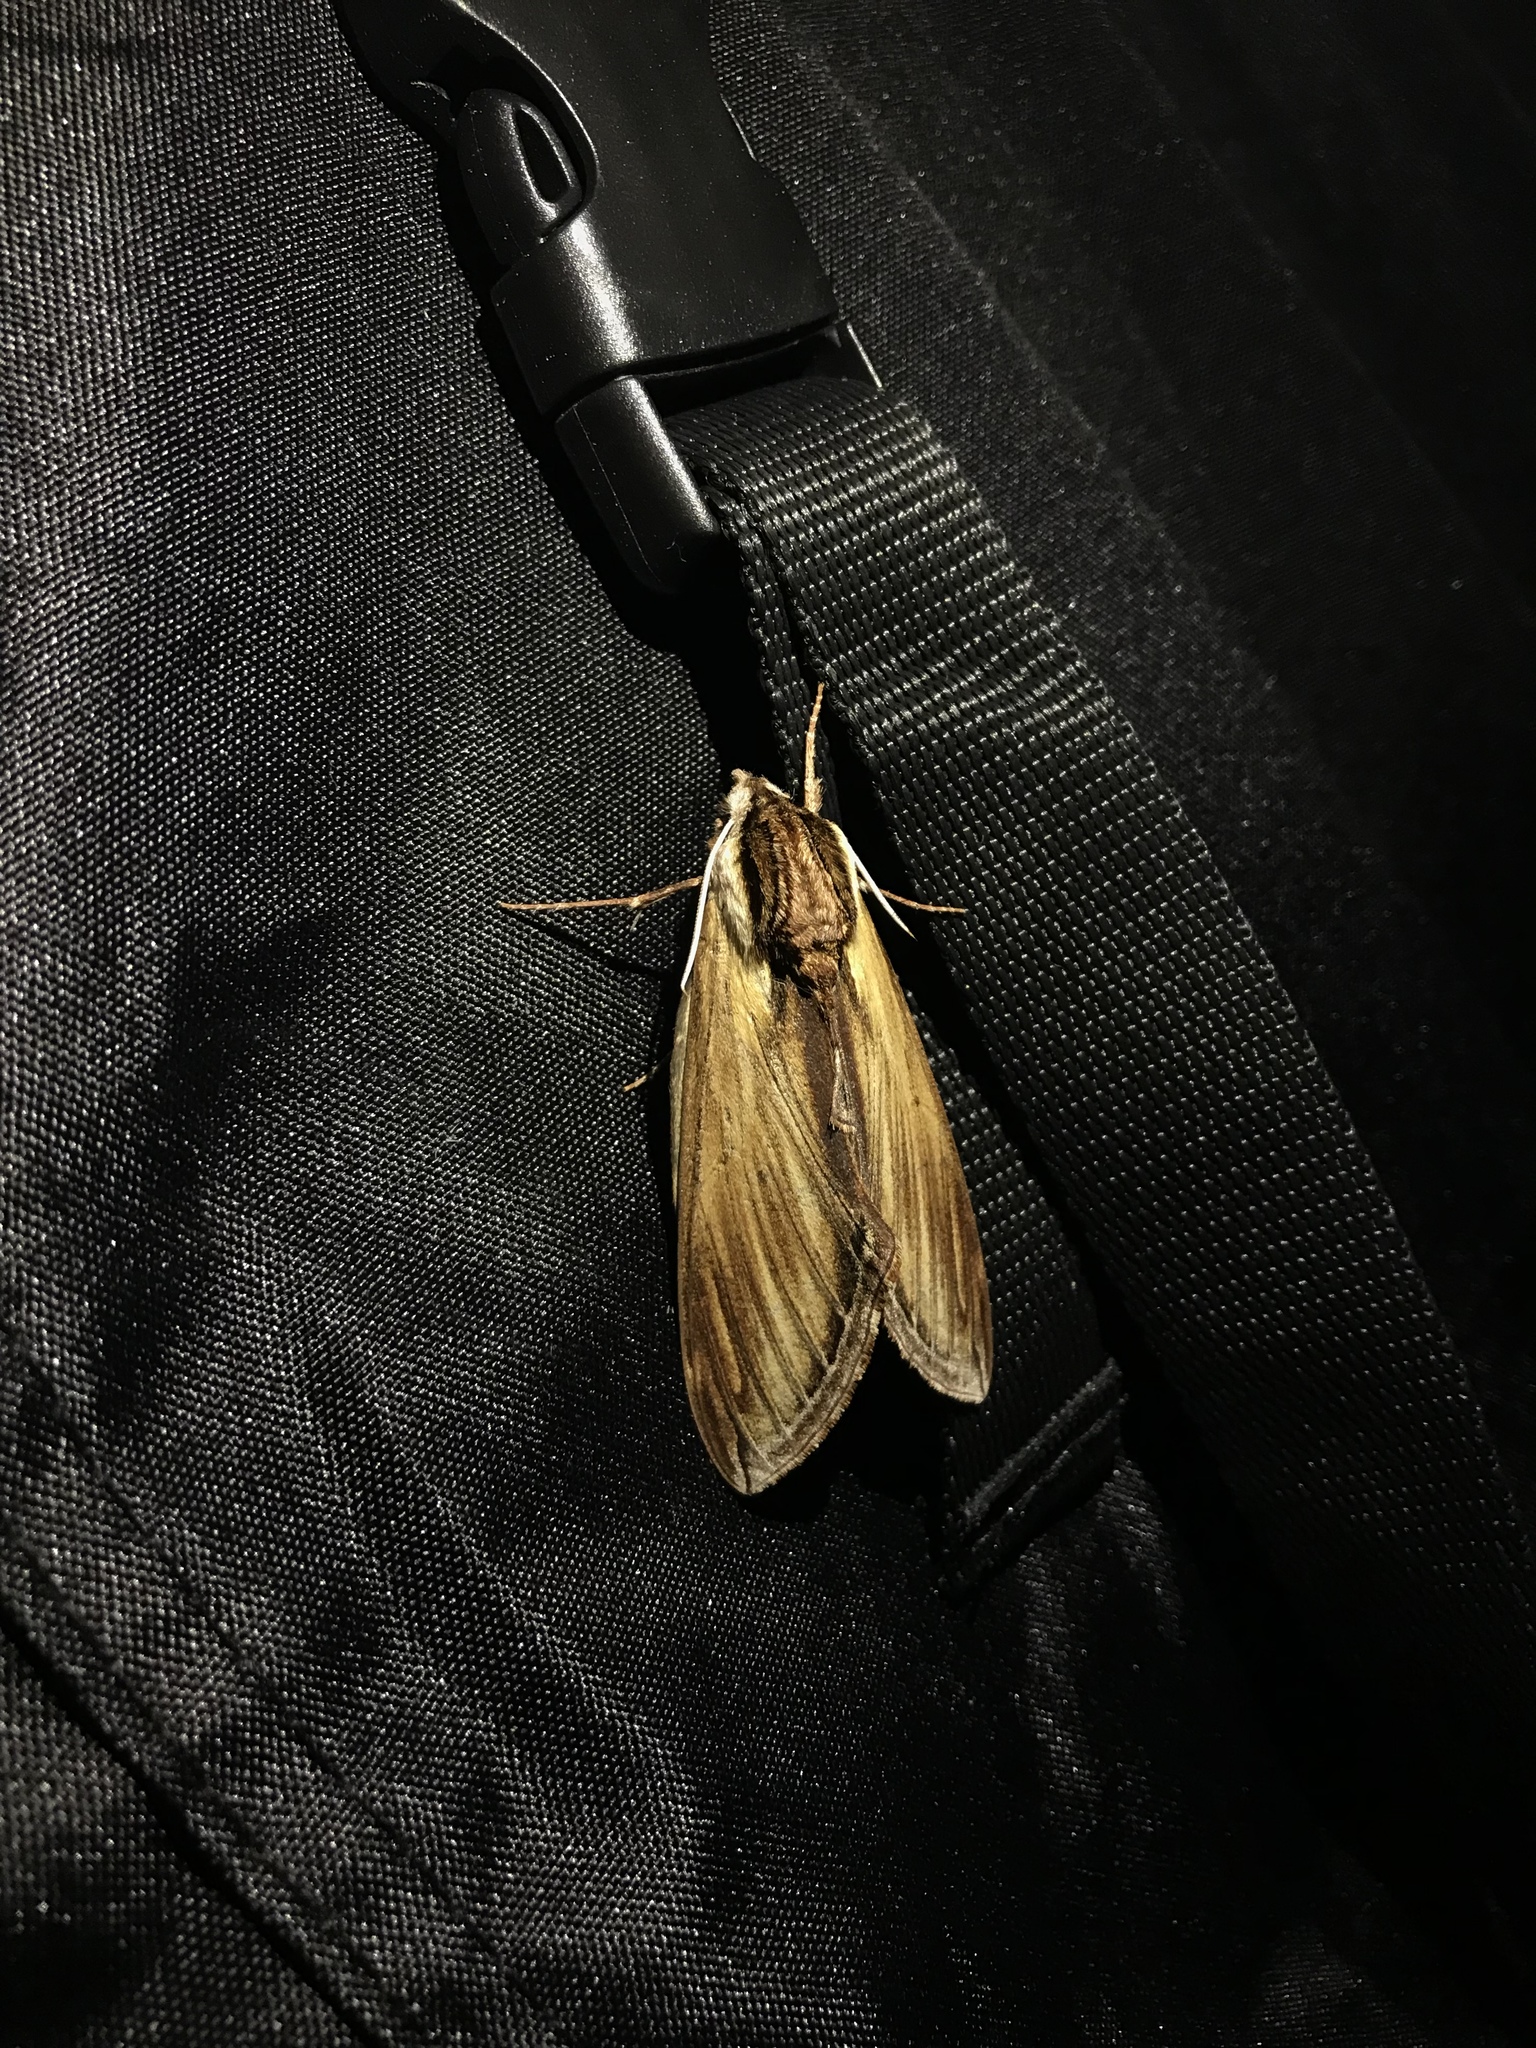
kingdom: Animalia
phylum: Arthropoda
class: Insecta
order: Lepidoptera
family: Sphingidae
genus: Sphinx
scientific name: Sphinx kalmiae
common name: Laurel sphinx
